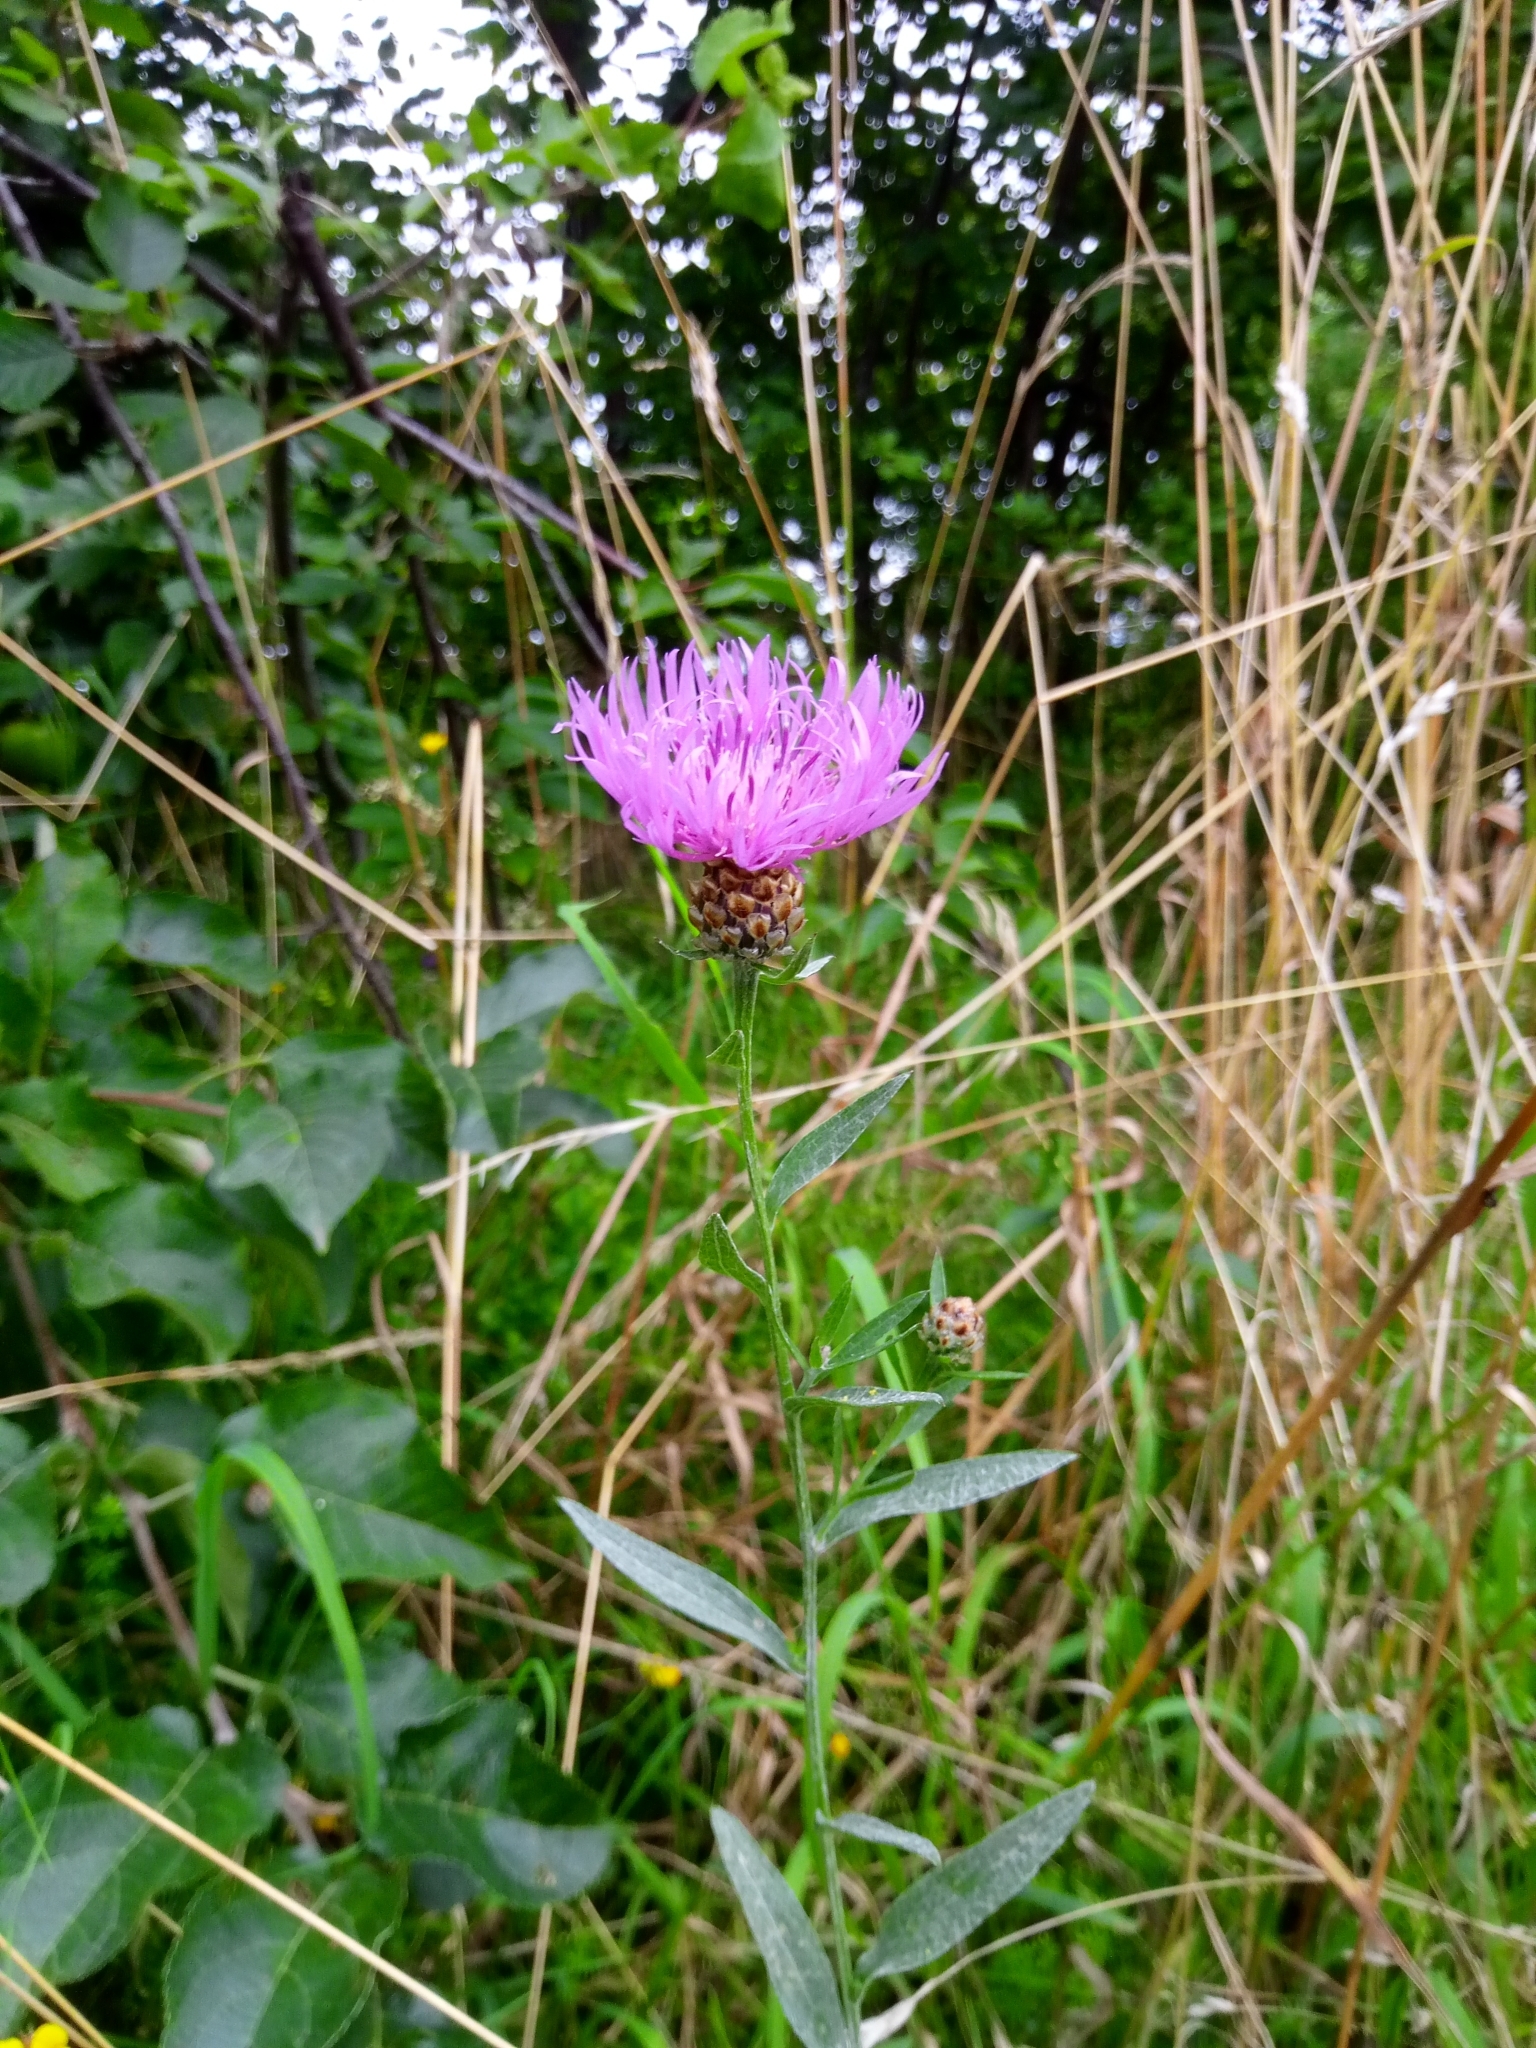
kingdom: Plantae
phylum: Tracheophyta
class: Magnoliopsida
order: Asterales
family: Asteraceae
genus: Centaurea
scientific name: Centaurea jacea
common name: Brown knapweed
